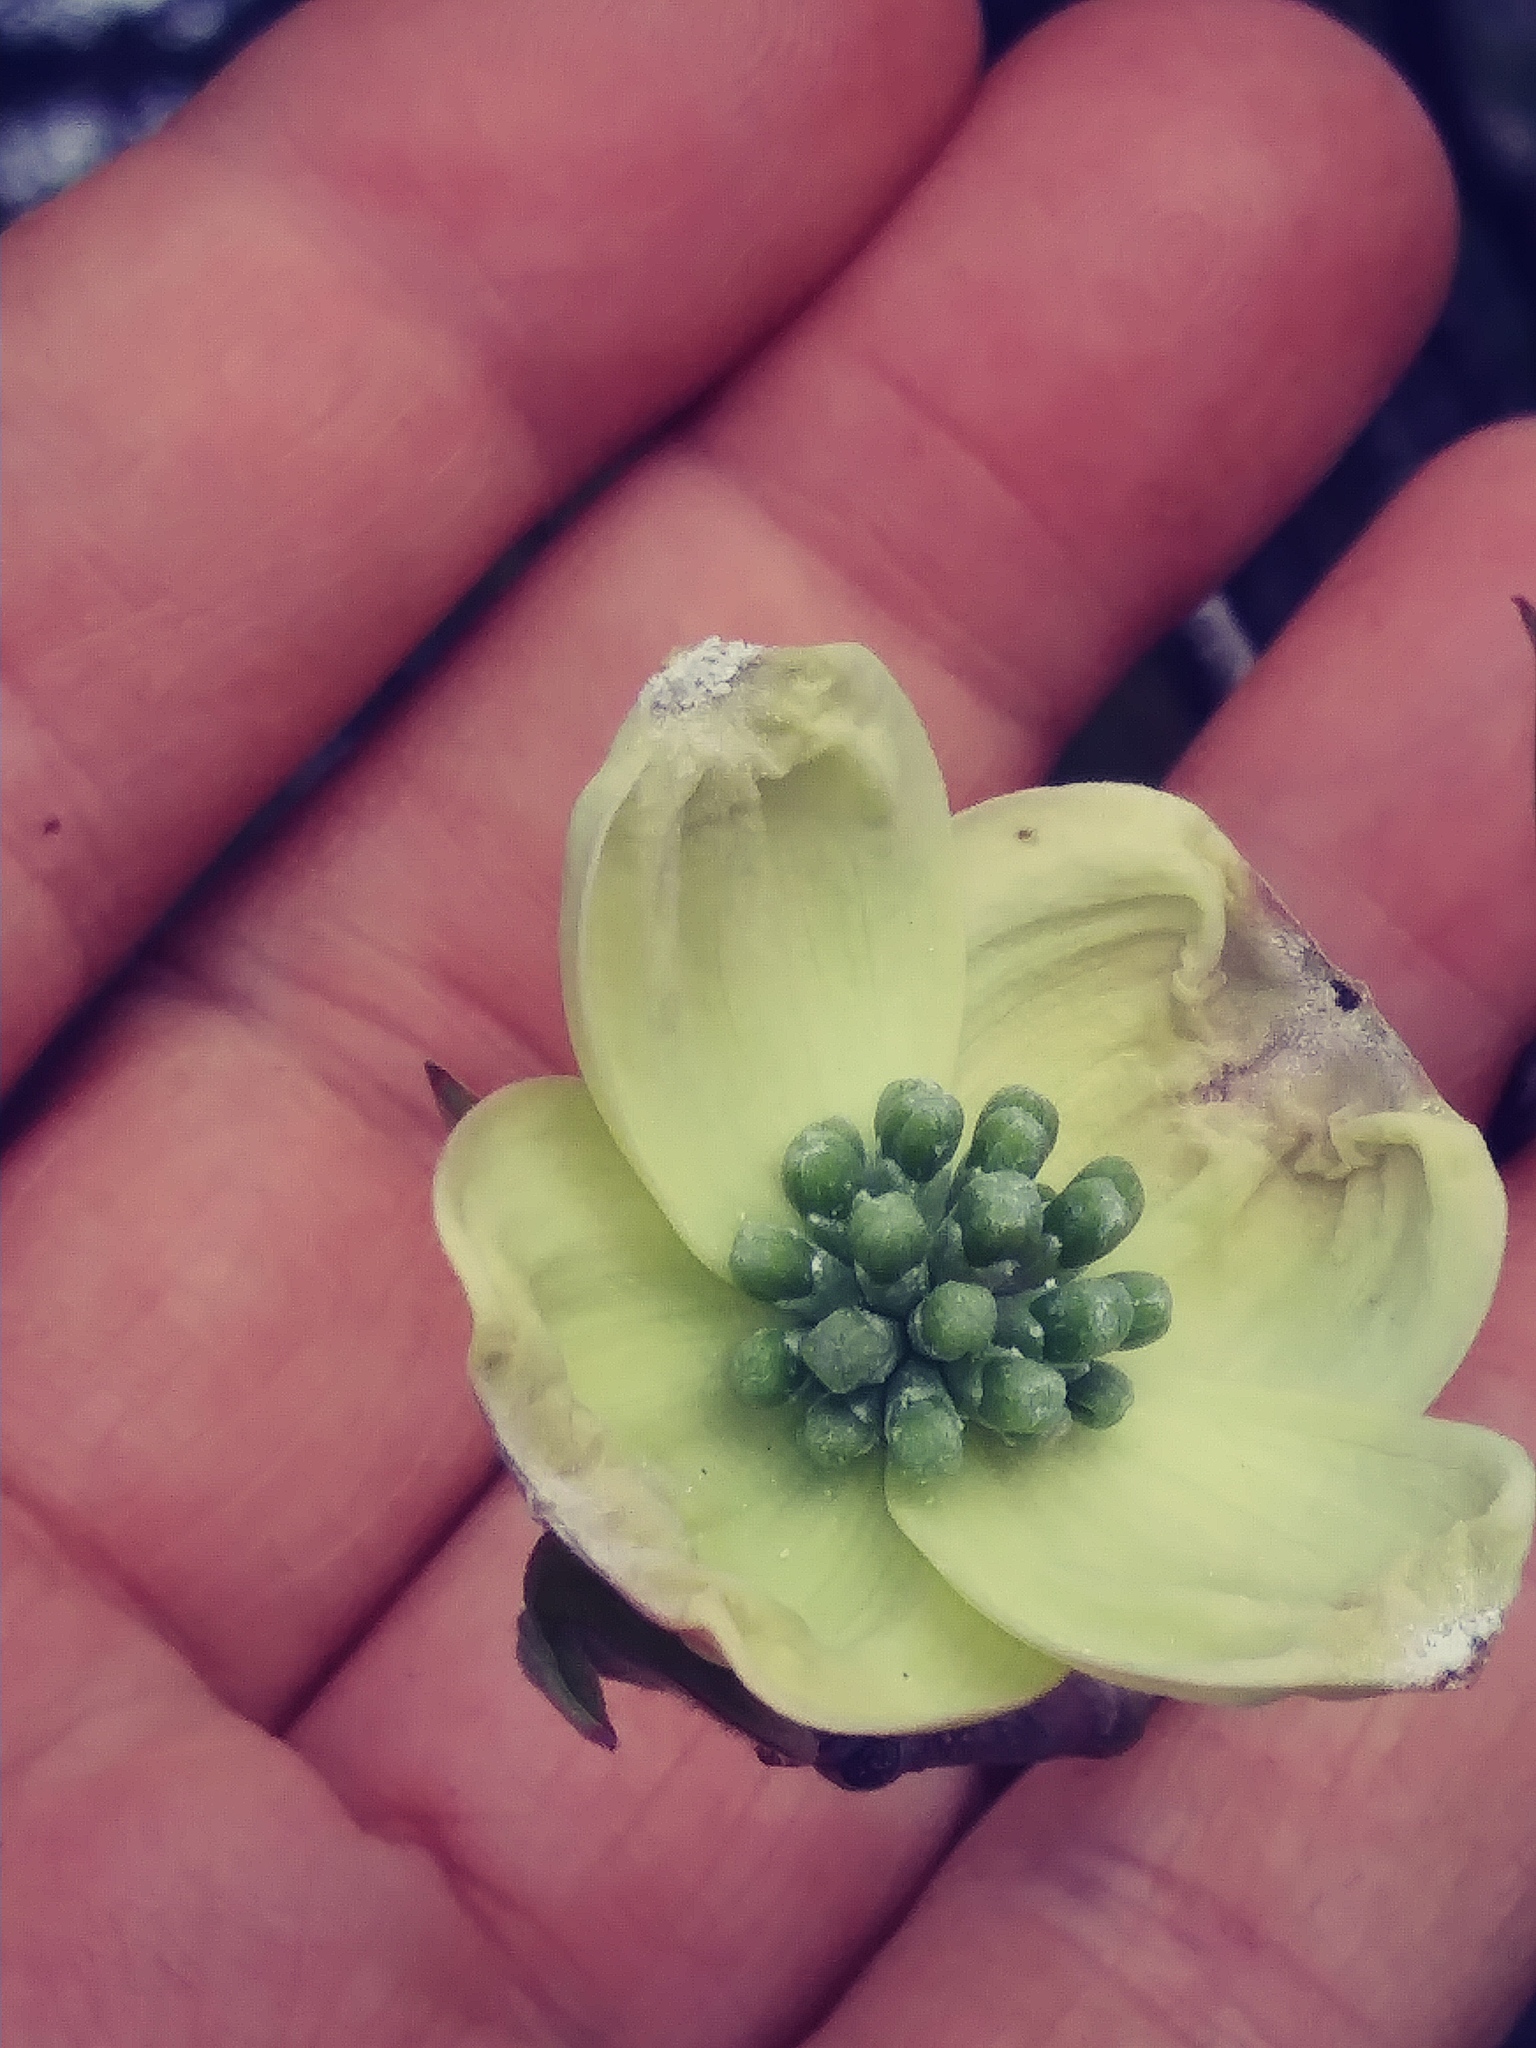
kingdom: Plantae
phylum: Tracheophyta
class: Magnoliopsida
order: Cornales
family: Cornaceae
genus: Cornus
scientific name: Cornus florida
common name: Flowering dogwood
